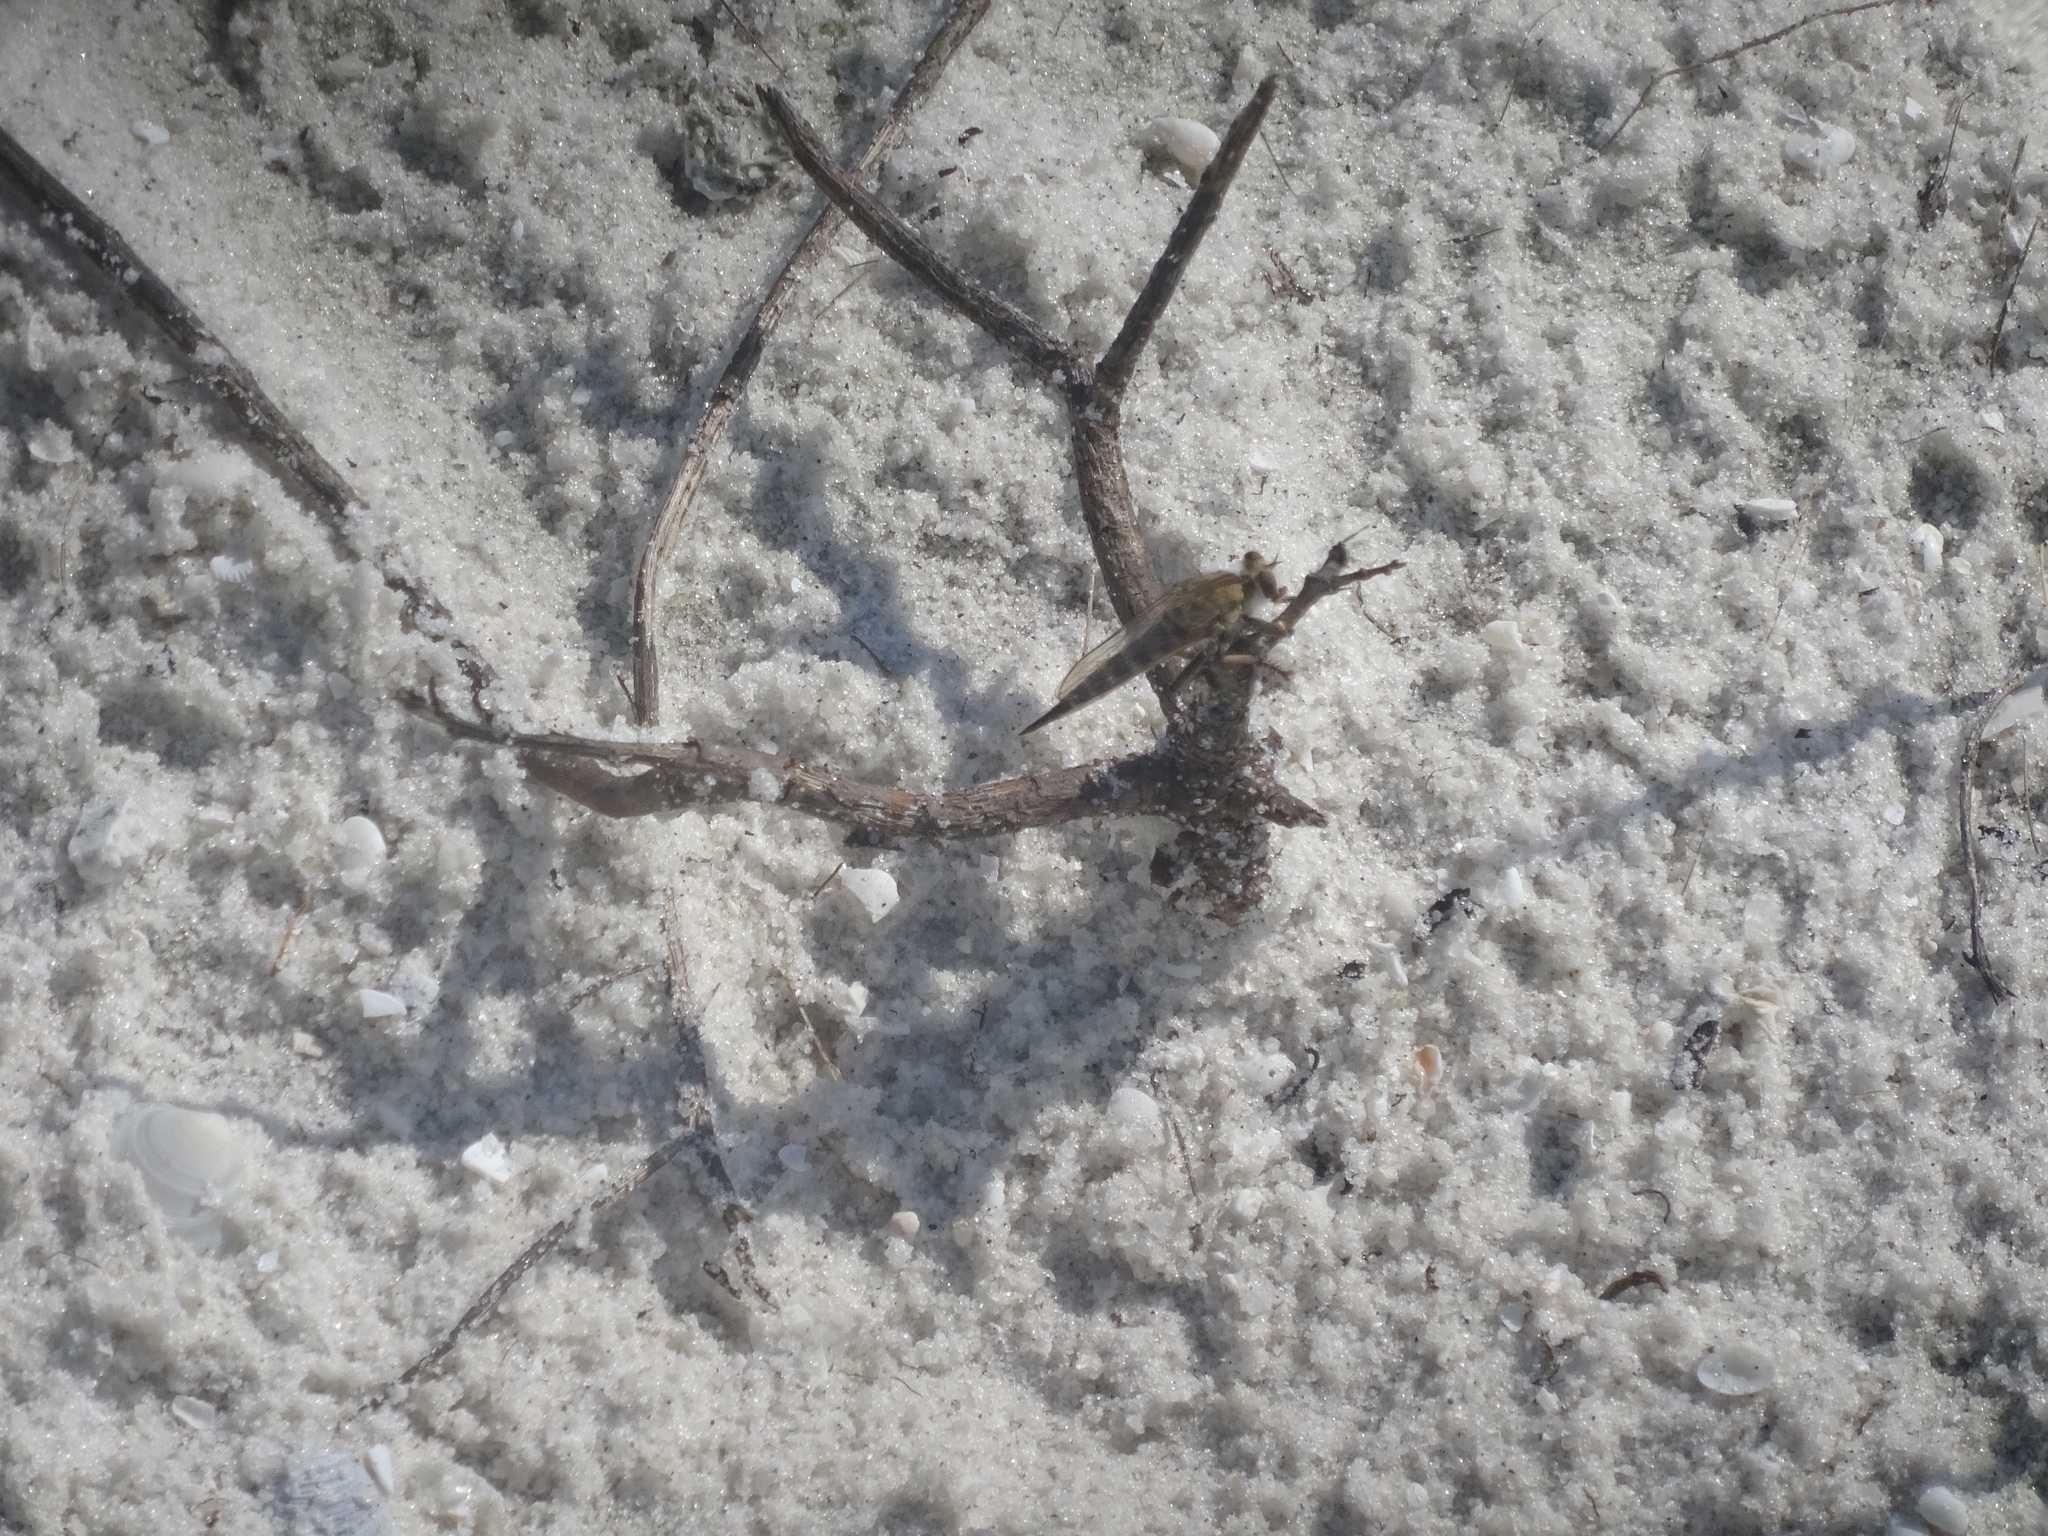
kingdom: Animalia
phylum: Arthropoda
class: Insecta
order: Diptera
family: Asilidae
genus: Efferia
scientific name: Efferia albibarbis
